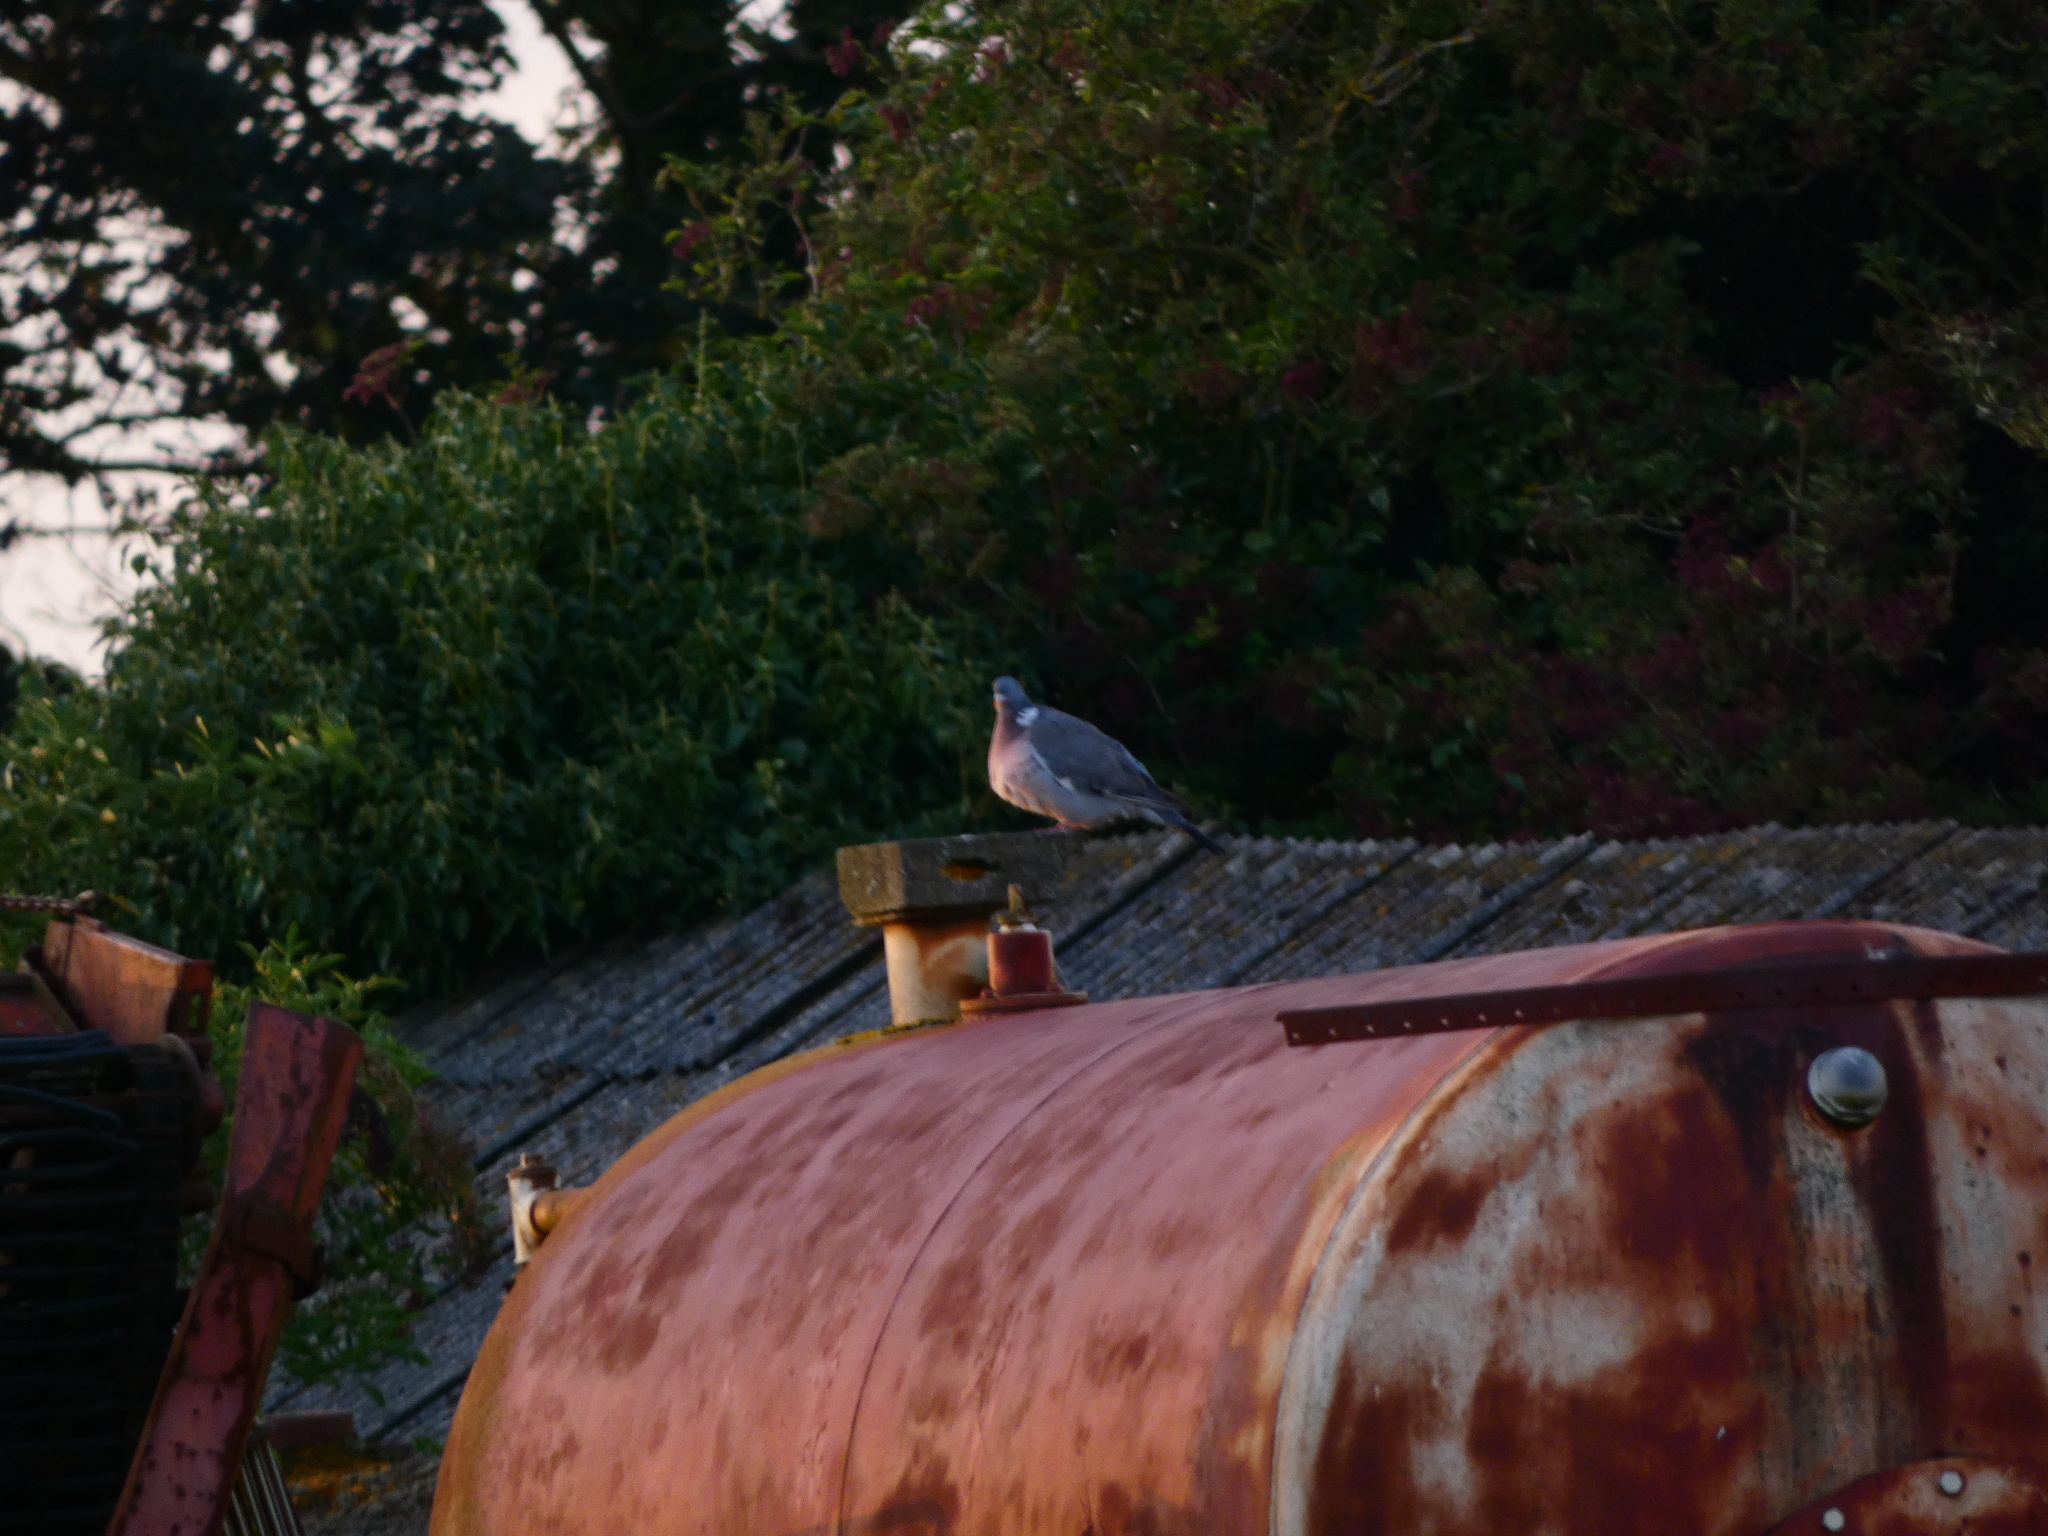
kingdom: Animalia
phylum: Chordata
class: Aves
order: Columbiformes
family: Columbidae
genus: Columba
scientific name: Columba palumbus
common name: Common wood pigeon
